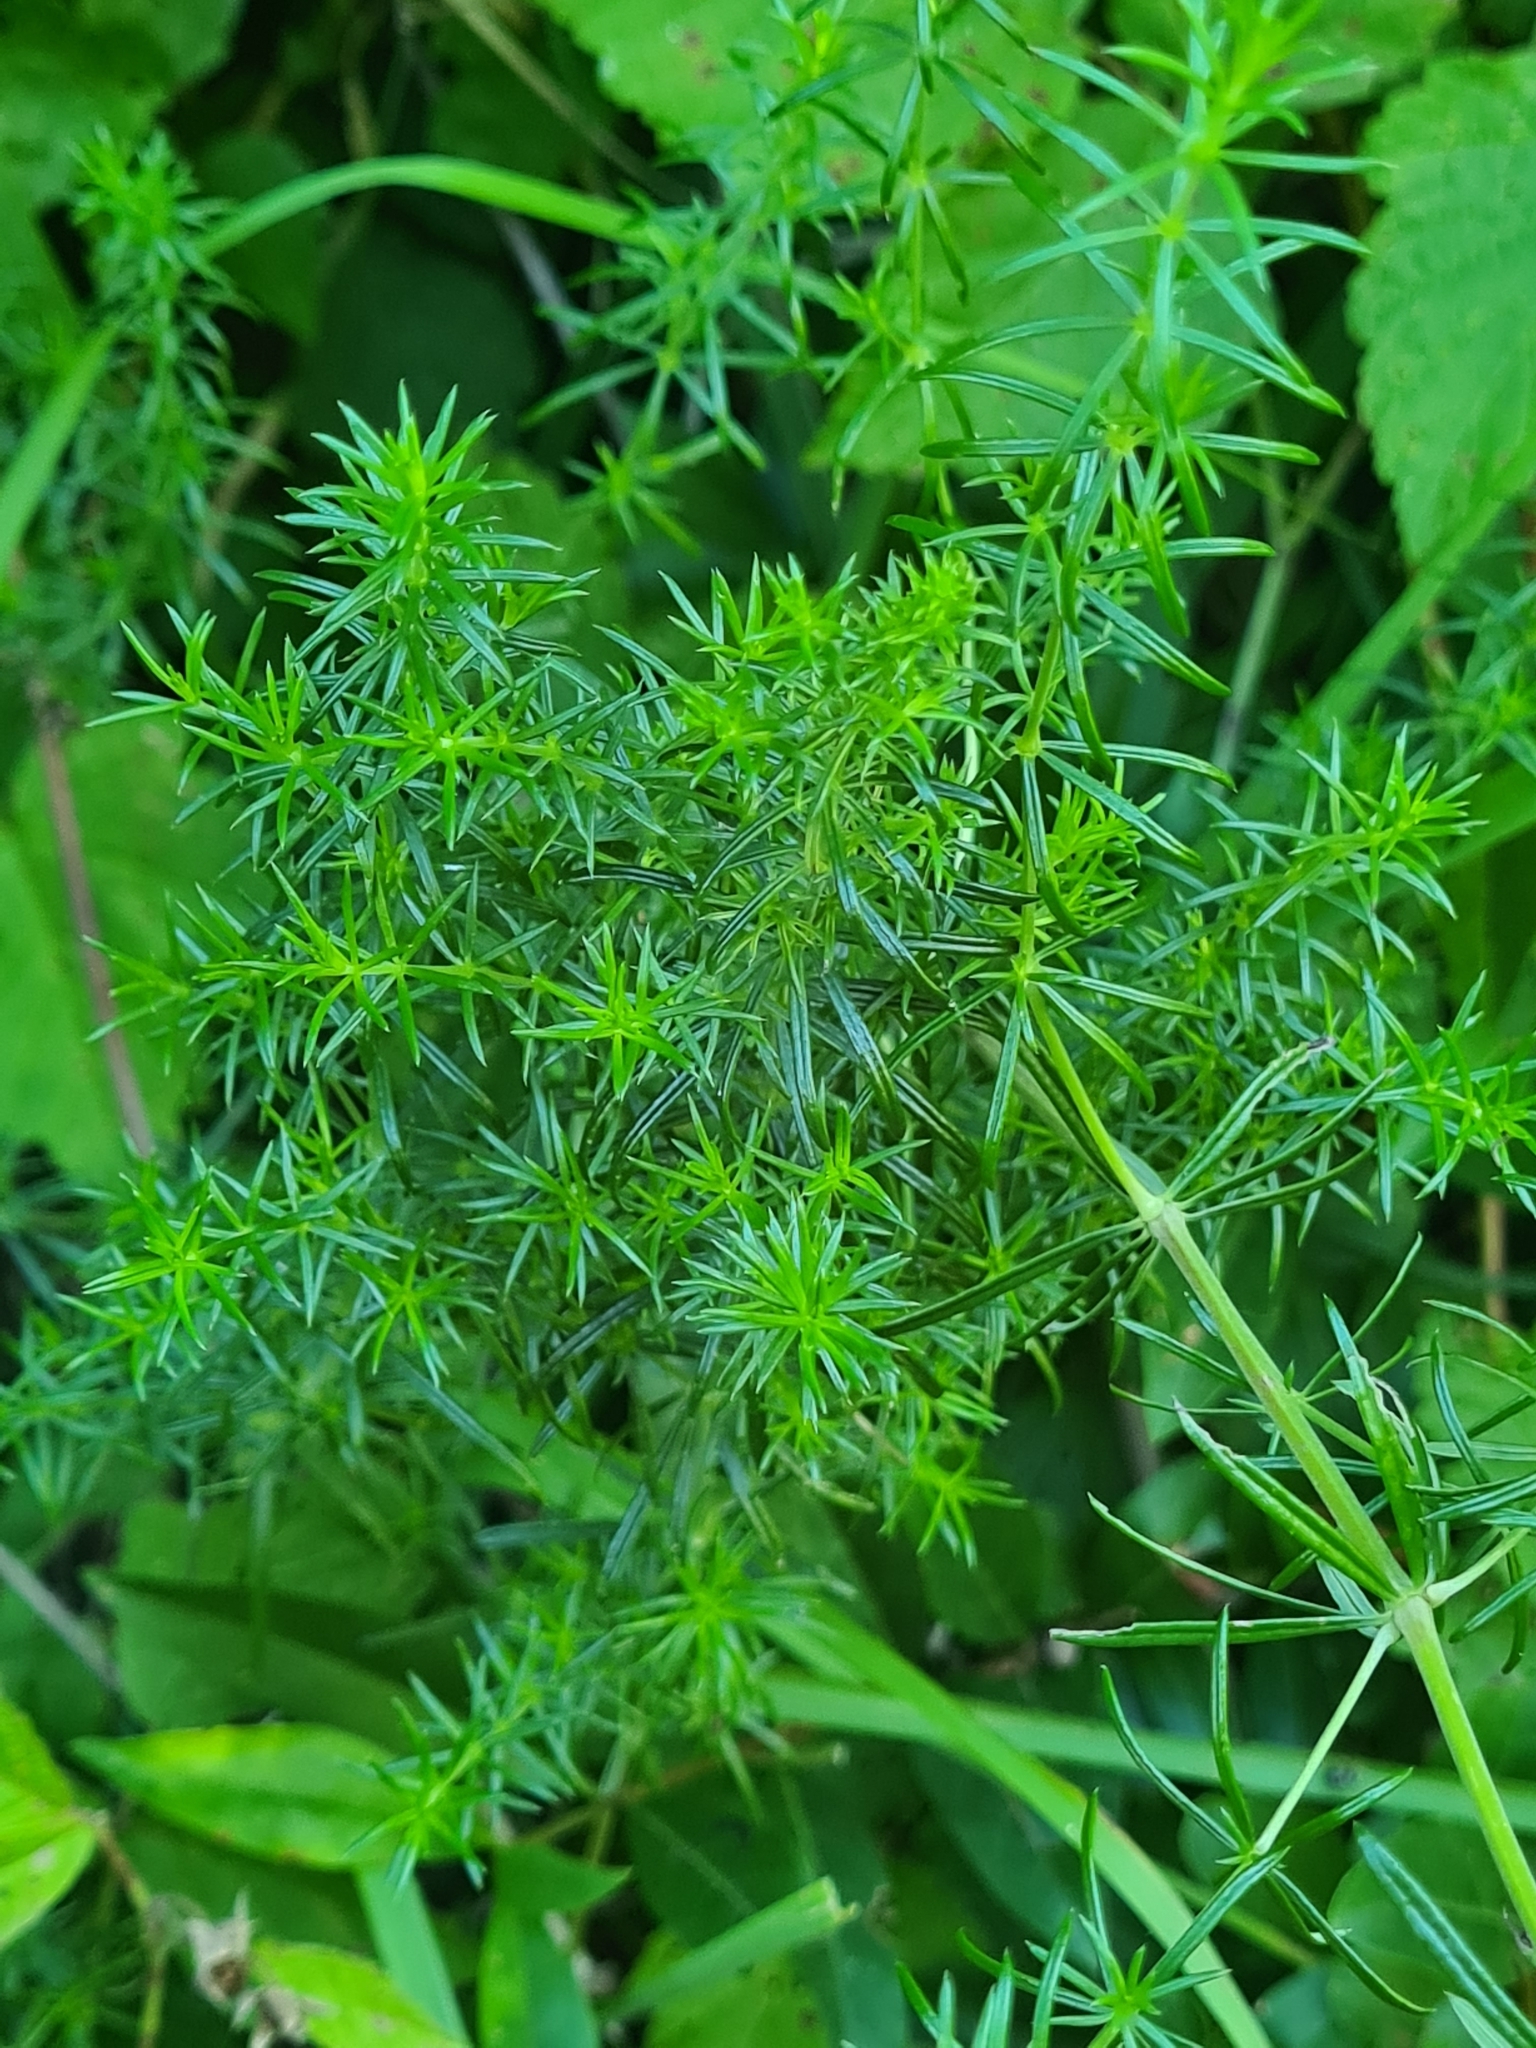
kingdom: Plantae
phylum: Tracheophyta
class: Magnoliopsida
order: Gentianales
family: Rubiaceae
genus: Galium
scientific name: Galium verum
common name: Lady's bedstraw
